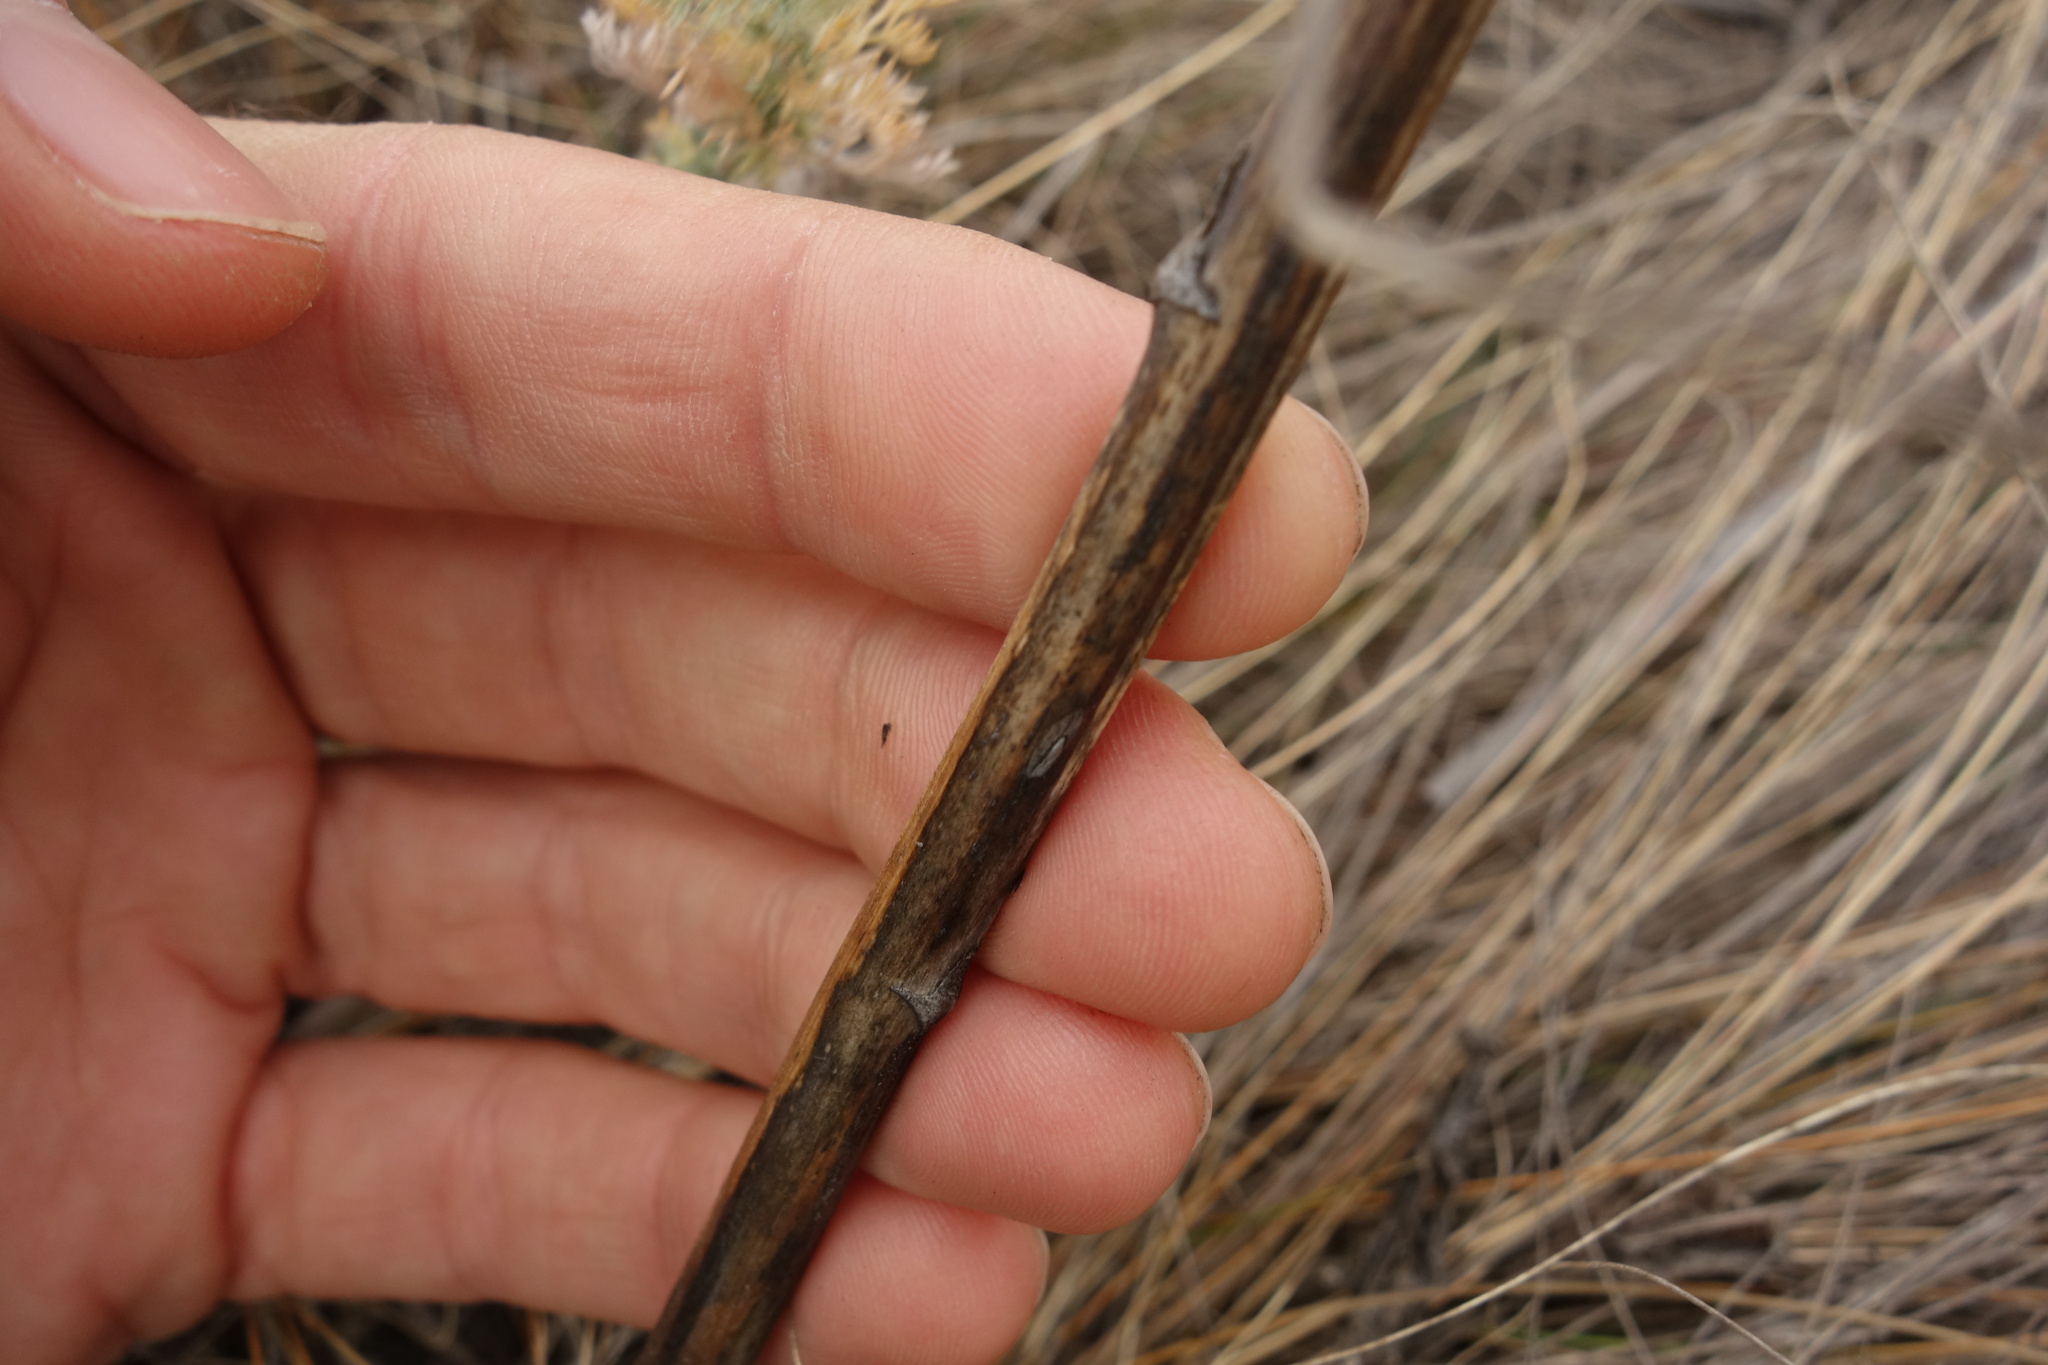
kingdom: Plantae
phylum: Tracheophyta
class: Liliopsida
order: Asparagales
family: Asparagaceae
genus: Asparagus
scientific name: Asparagus officinalis
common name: Garden asparagus
